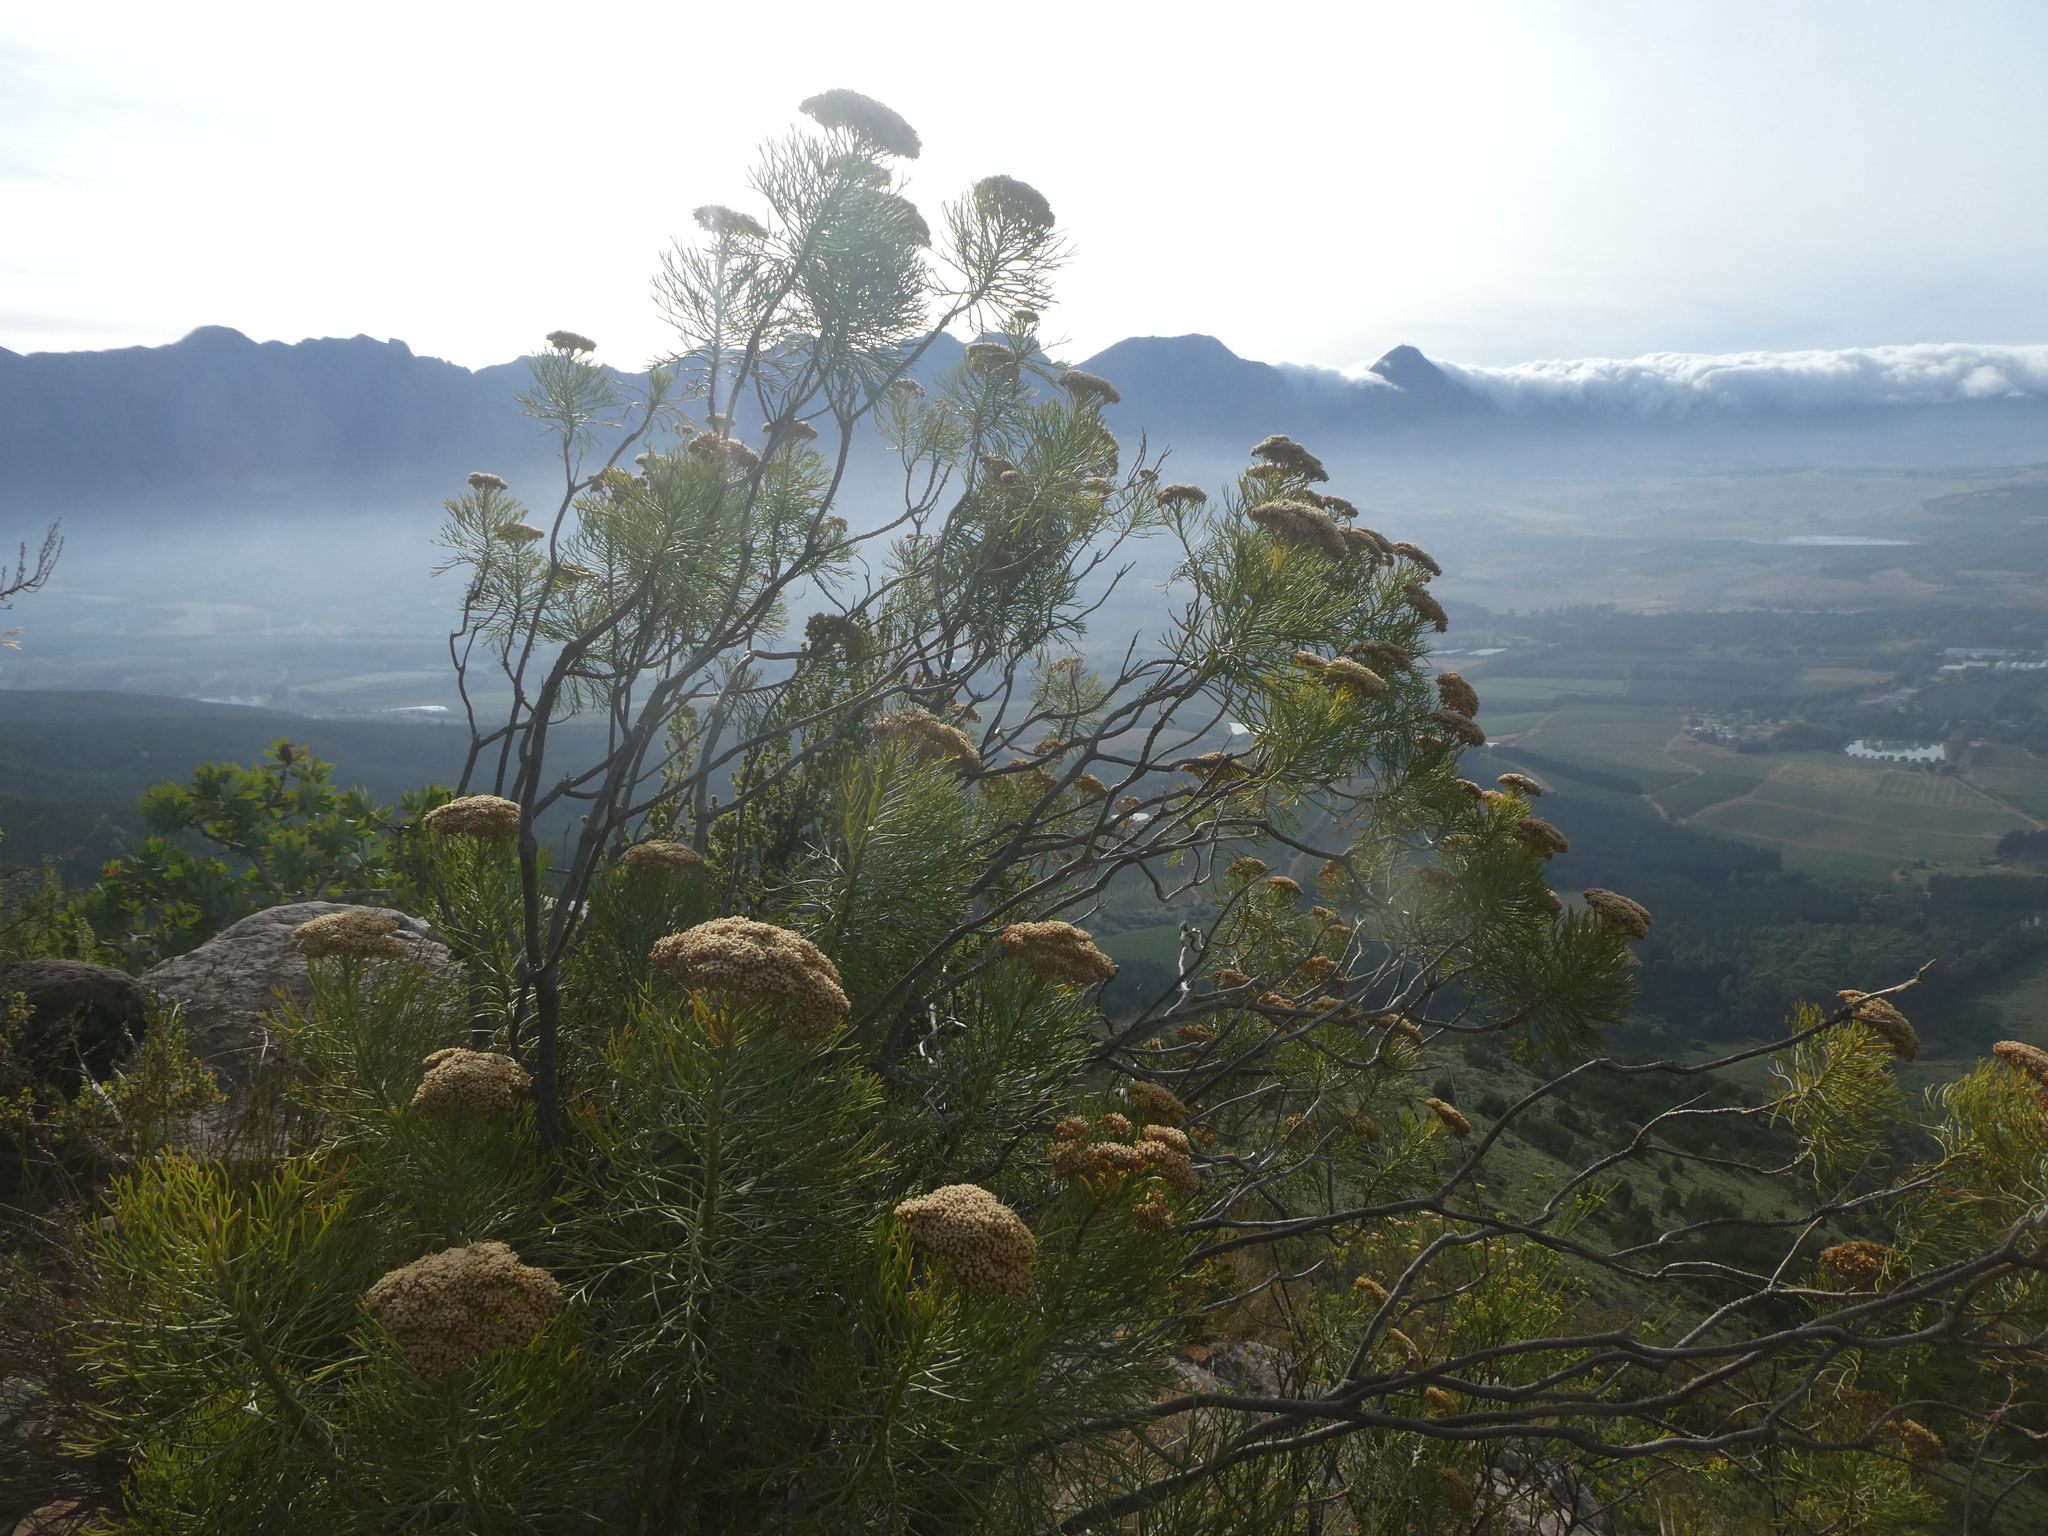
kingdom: Plantae
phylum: Tracheophyta
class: Magnoliopsida
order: Asterales
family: Asteraceae
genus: Hymenolepis
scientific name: Hymenolepis crithmifolia
